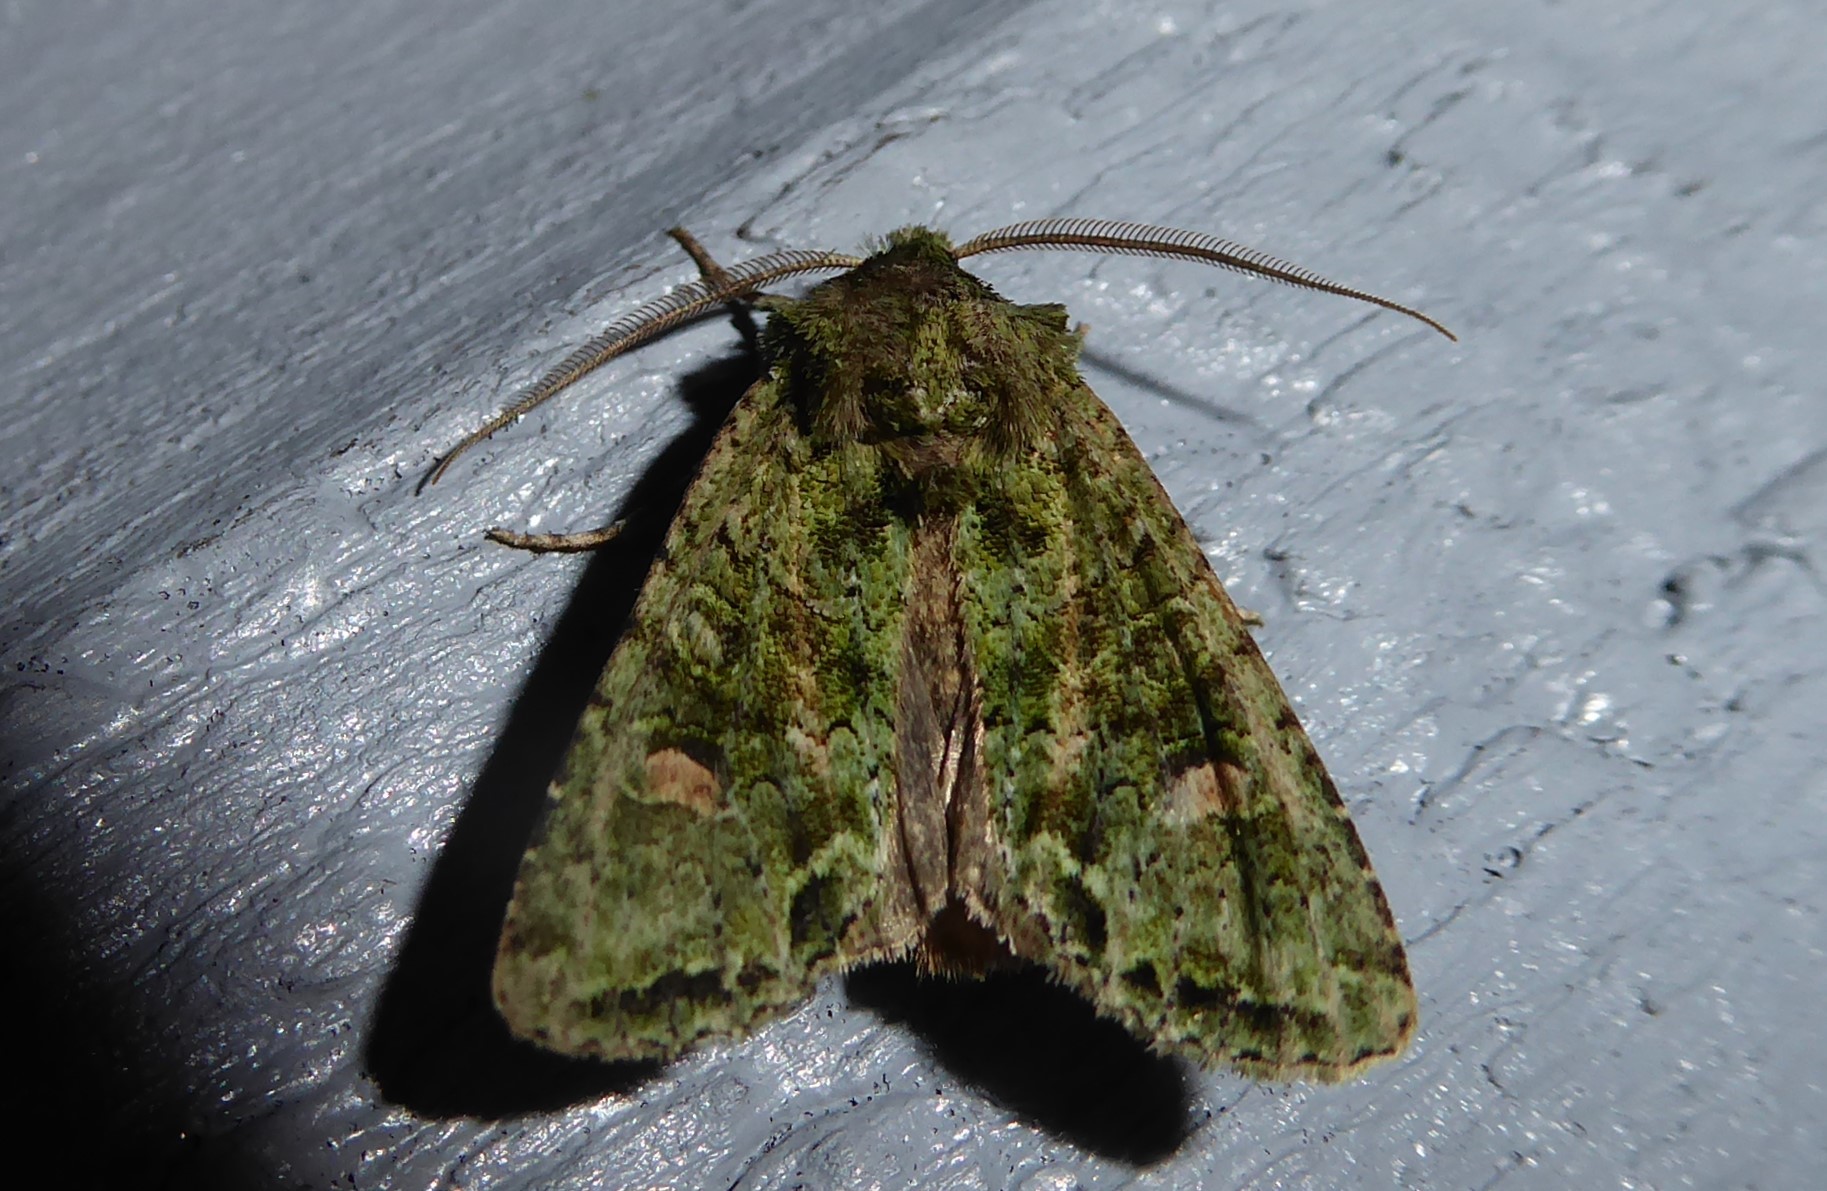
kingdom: Animalia
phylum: Arthropoda
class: Insecta
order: Lepidoptera
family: Noctuidae
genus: Ichneutica
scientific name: Ichneutica
